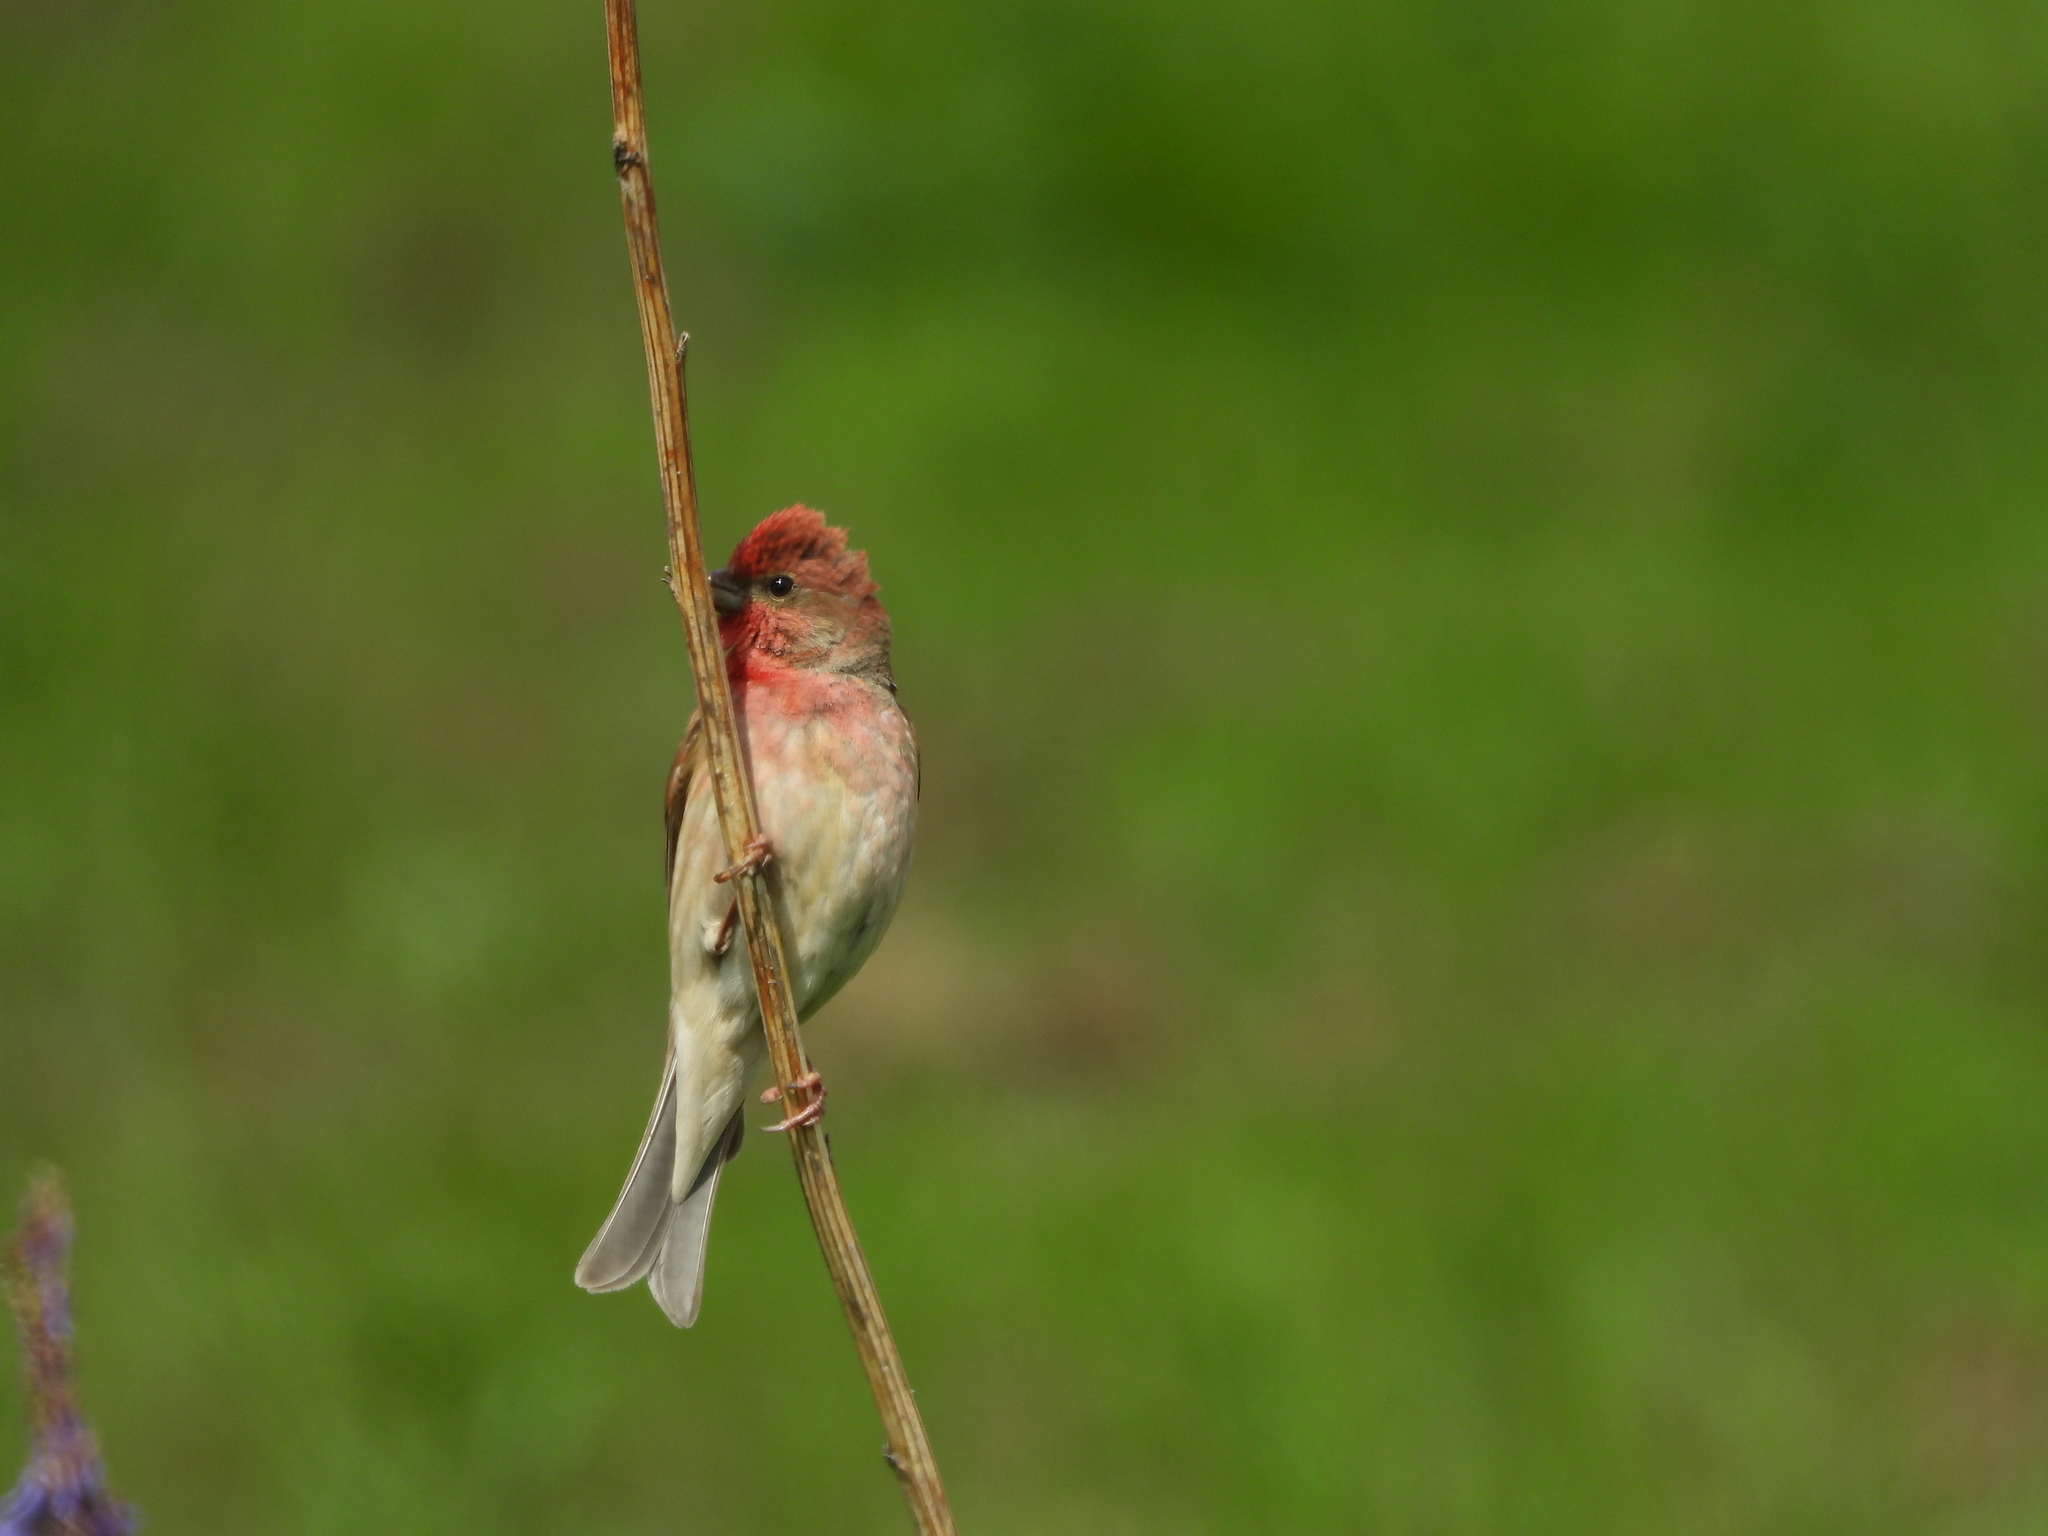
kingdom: Animalia
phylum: Chordata
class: Aves
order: Passeriformes
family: Fringillidae
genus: Carpodacus
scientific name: Carpodacus erythrinus
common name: Common rosefinch
